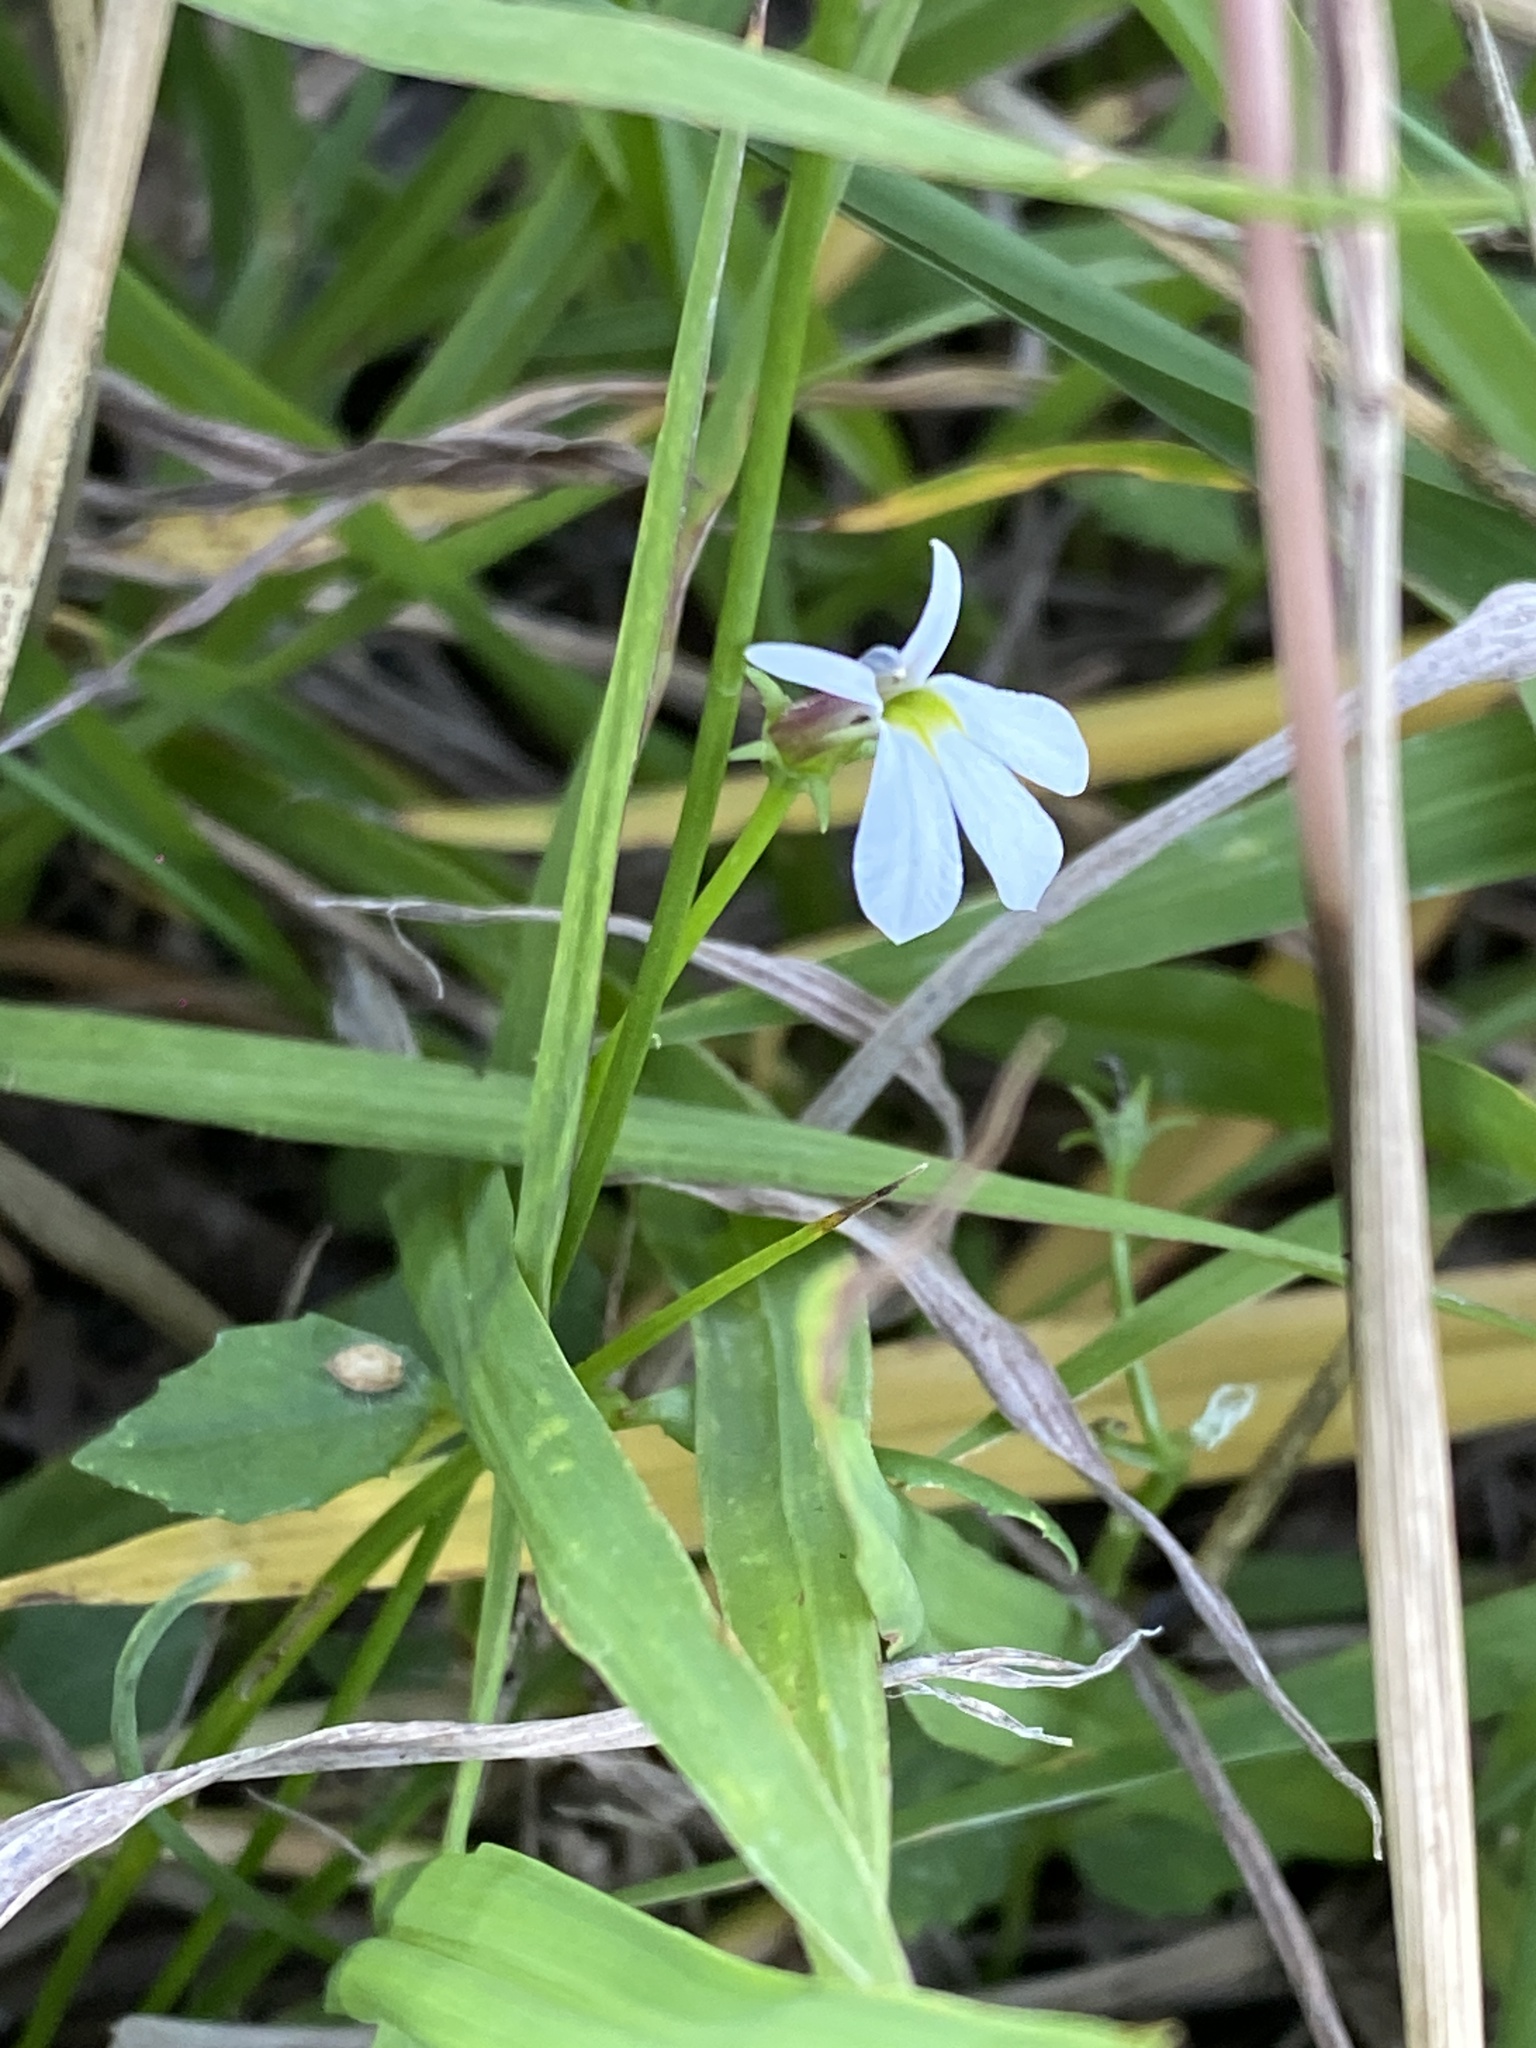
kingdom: Plantae
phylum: Tracheophyta
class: Magnoliopsida
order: Asterales
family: Campanulaceae
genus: Lobelia
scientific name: Lobelia purpurascens
